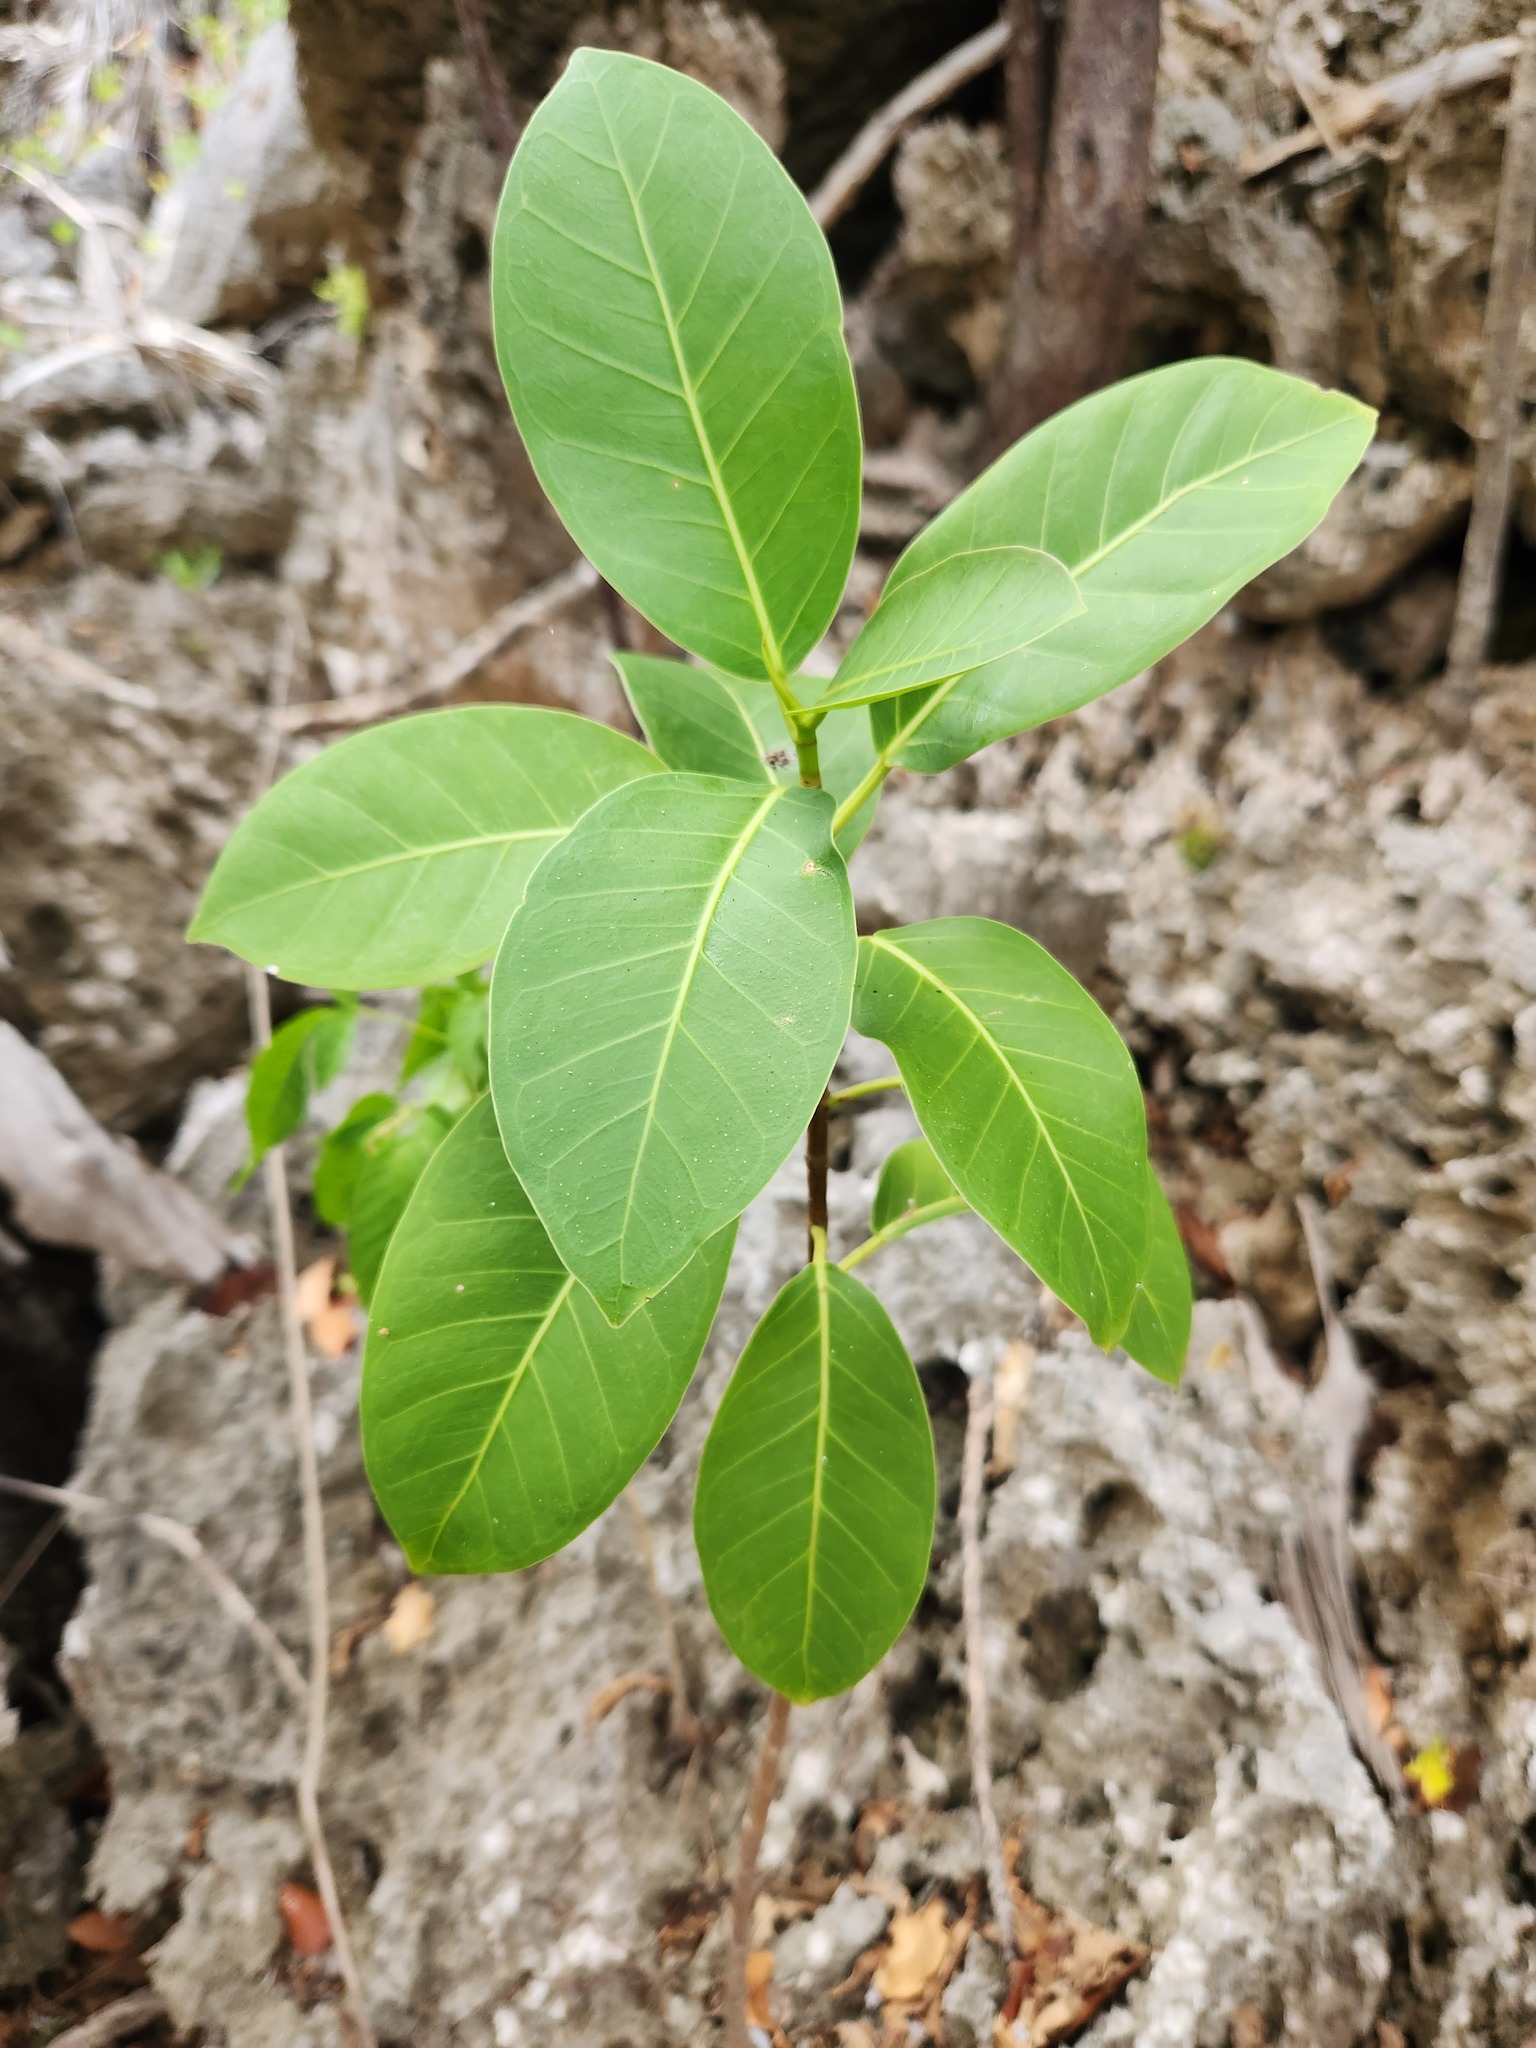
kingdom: Plantae
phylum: Tracheophyta
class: Magnoliopsida
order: Rosales
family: Moraceae
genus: Ficus
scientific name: Ficus aurea
